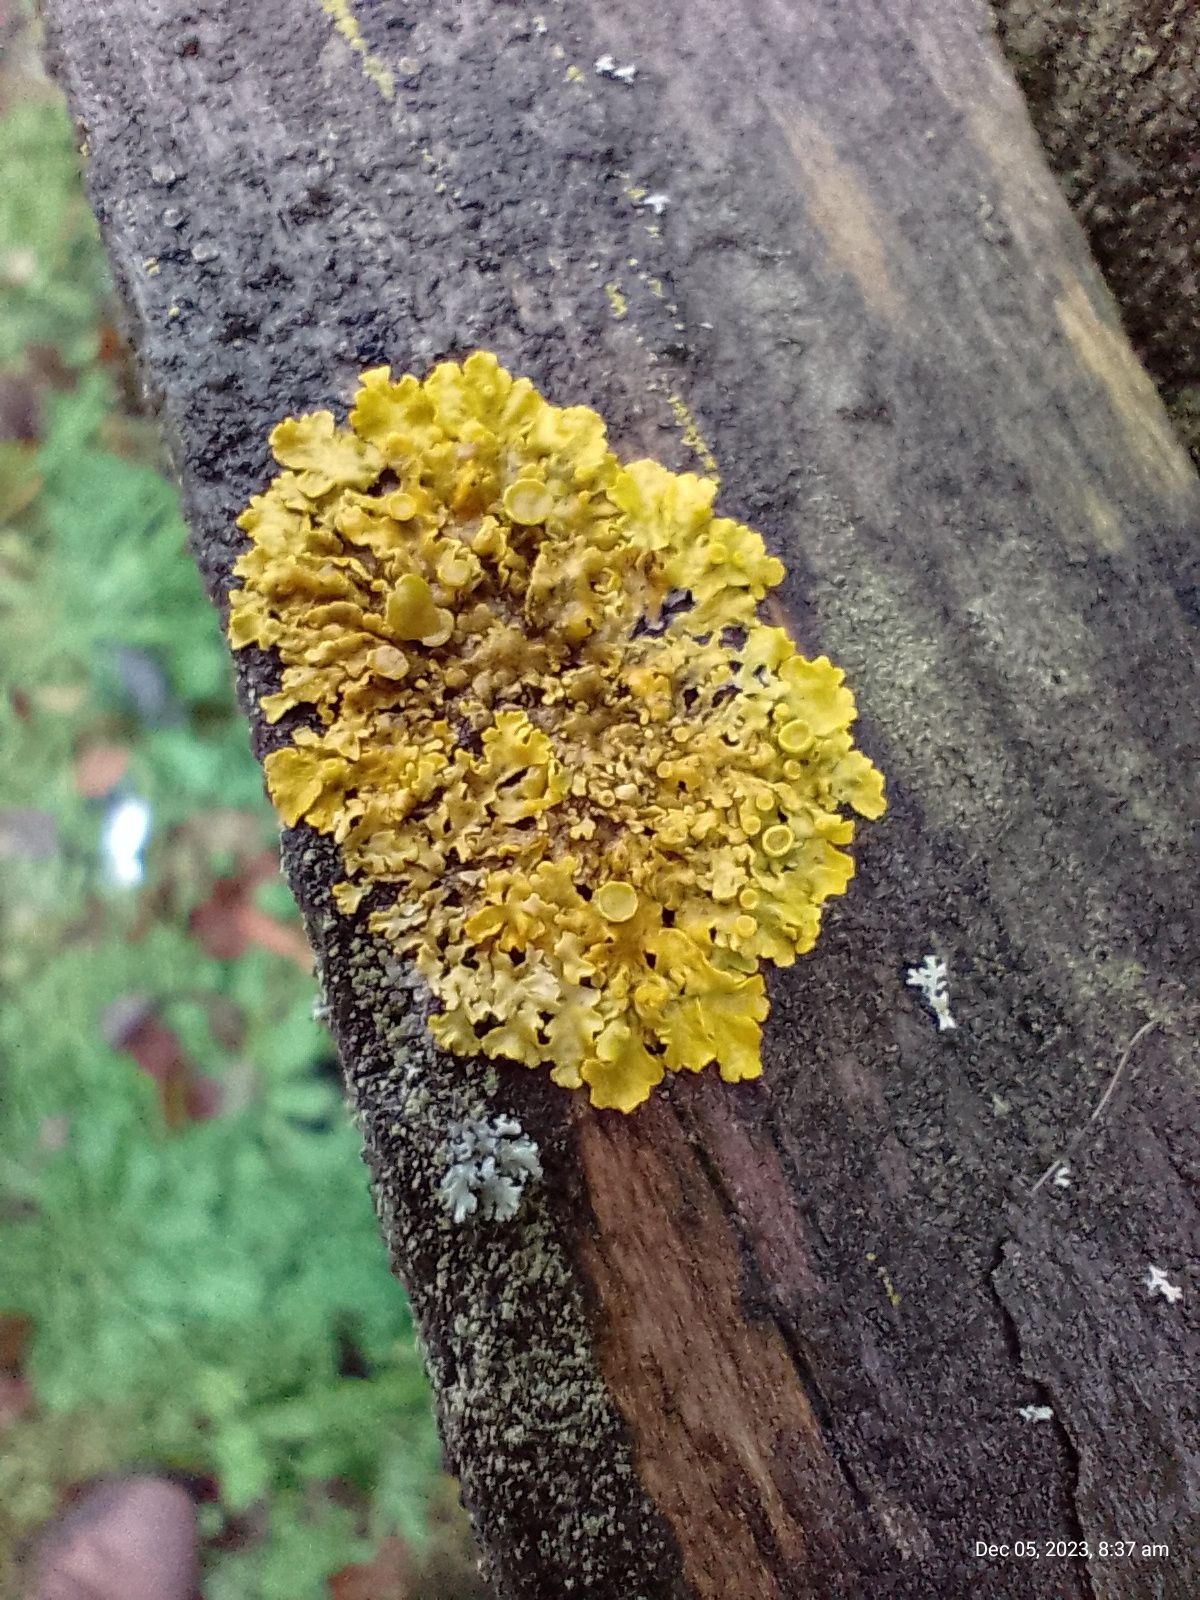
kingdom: Fungi
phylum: Ascomycota
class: Lecanoromycetes
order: Teloschistales
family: Teloschistaceae
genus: Xanthoria
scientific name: Xanthoria parietina
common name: Common orange lichen
